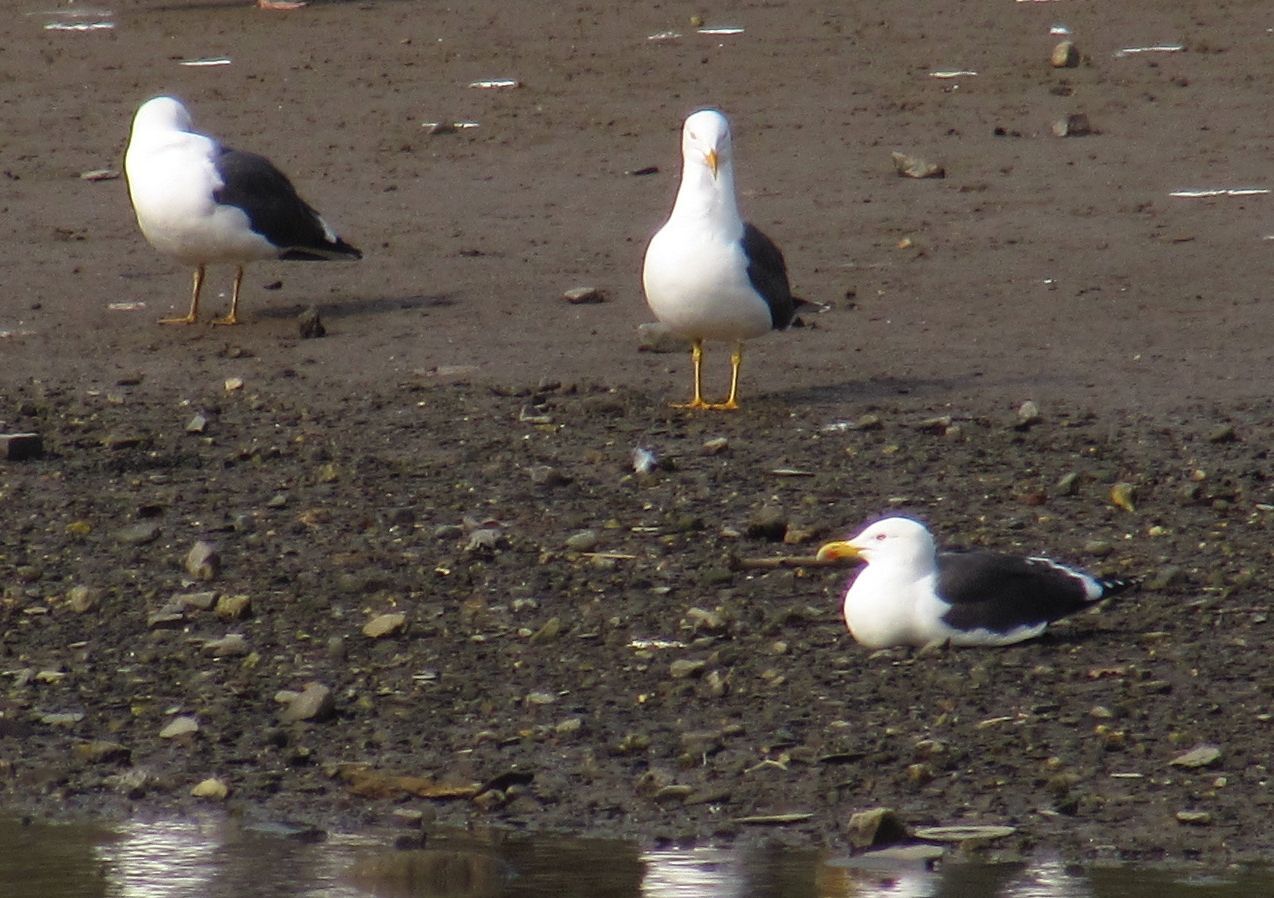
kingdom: Animalia
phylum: Chordata
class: Aves
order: Charadriiformes
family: Laridae
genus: Larus
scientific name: Larus fuscus
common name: Lesser black-backed gull
